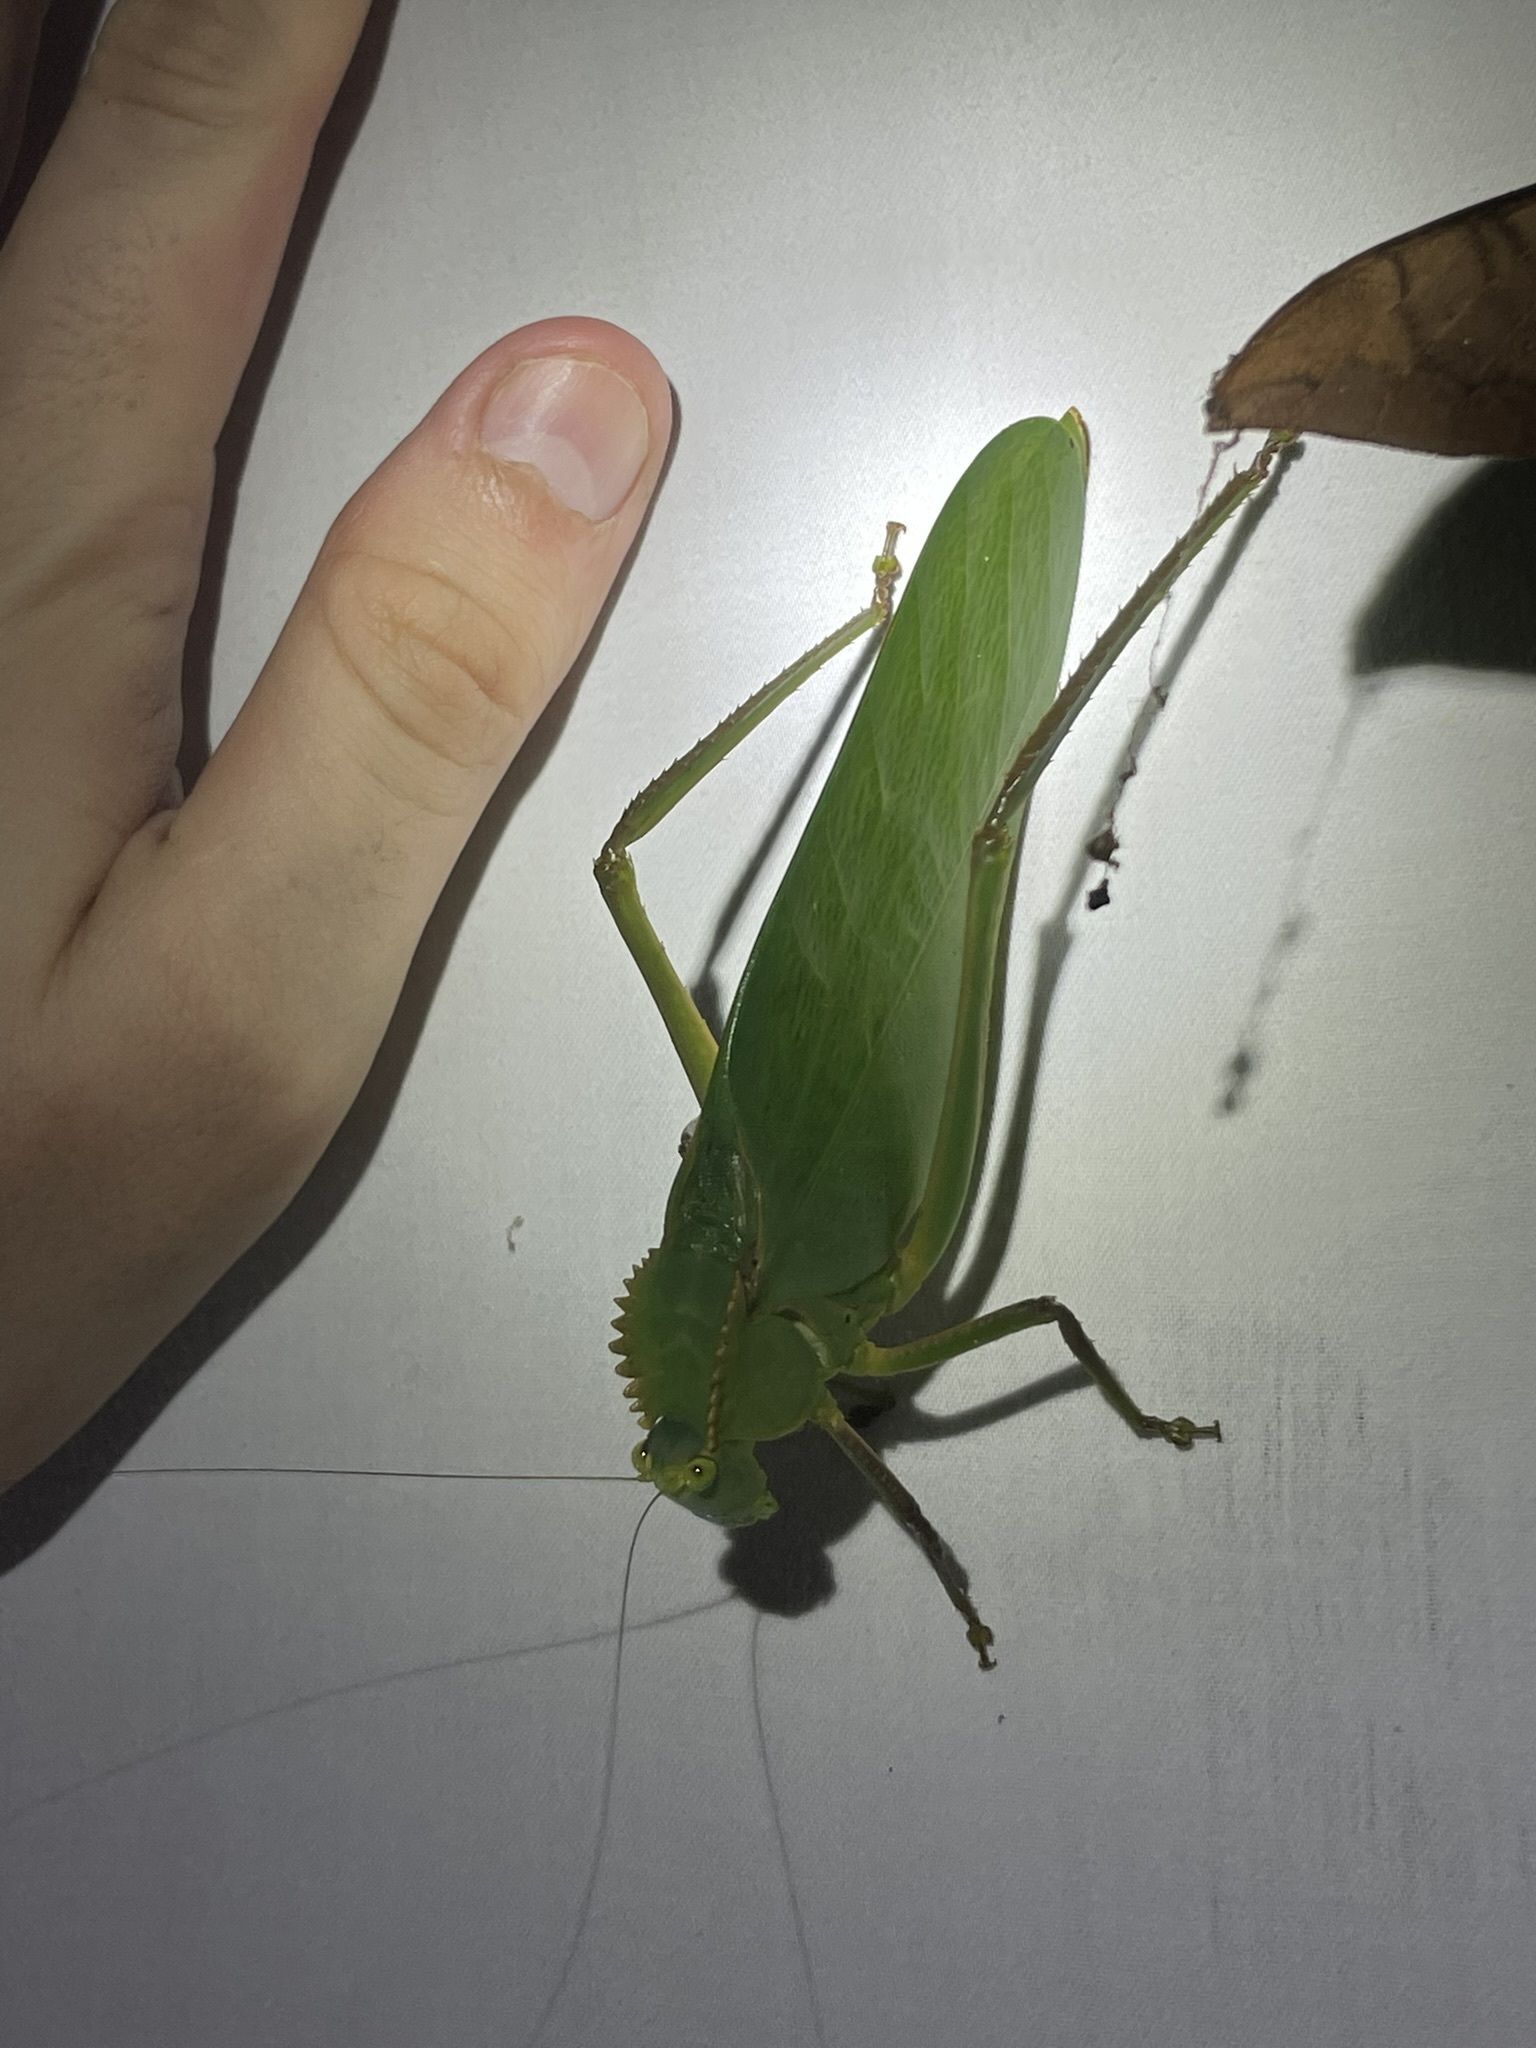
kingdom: Animalia
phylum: Arthropoda
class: Insecta
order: Orthoptera
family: Tettigoniidae
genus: Steirodon
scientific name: Steirodon stalii
